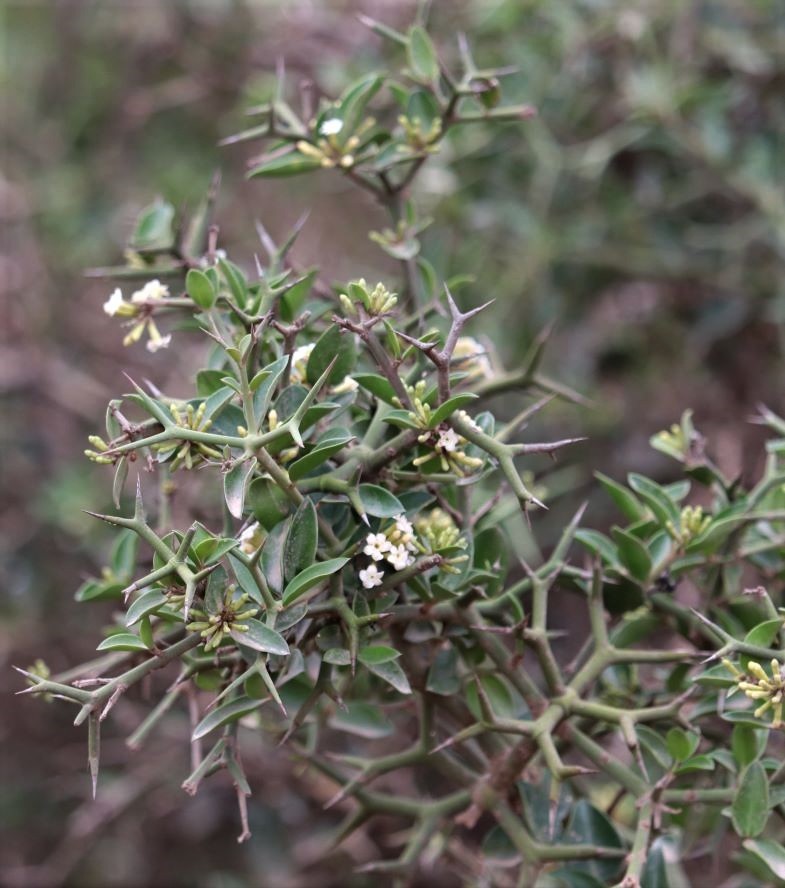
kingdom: Plantae
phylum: Tracheophyta
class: Magnoliopsida
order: Gentianales
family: Apocynaceae
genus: Carissa
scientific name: Carissa haematocarpa
